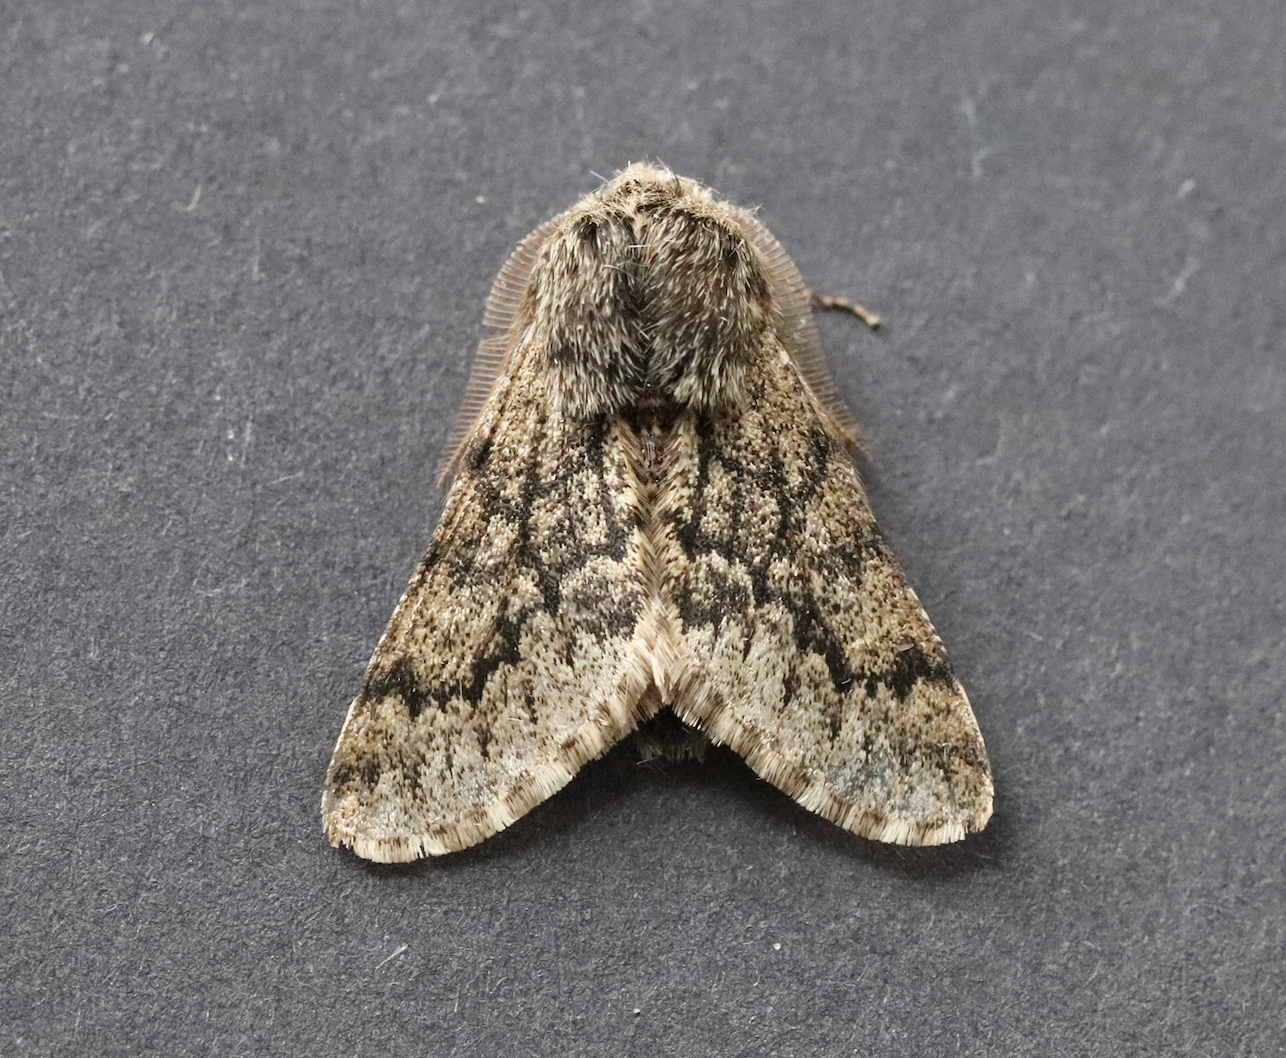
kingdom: Animalia
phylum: Arthropoda
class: Insecta
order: Lepidoptera
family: Geometridae
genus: Apocheima
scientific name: Apocheima hispidaria
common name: Small brindled beauty
